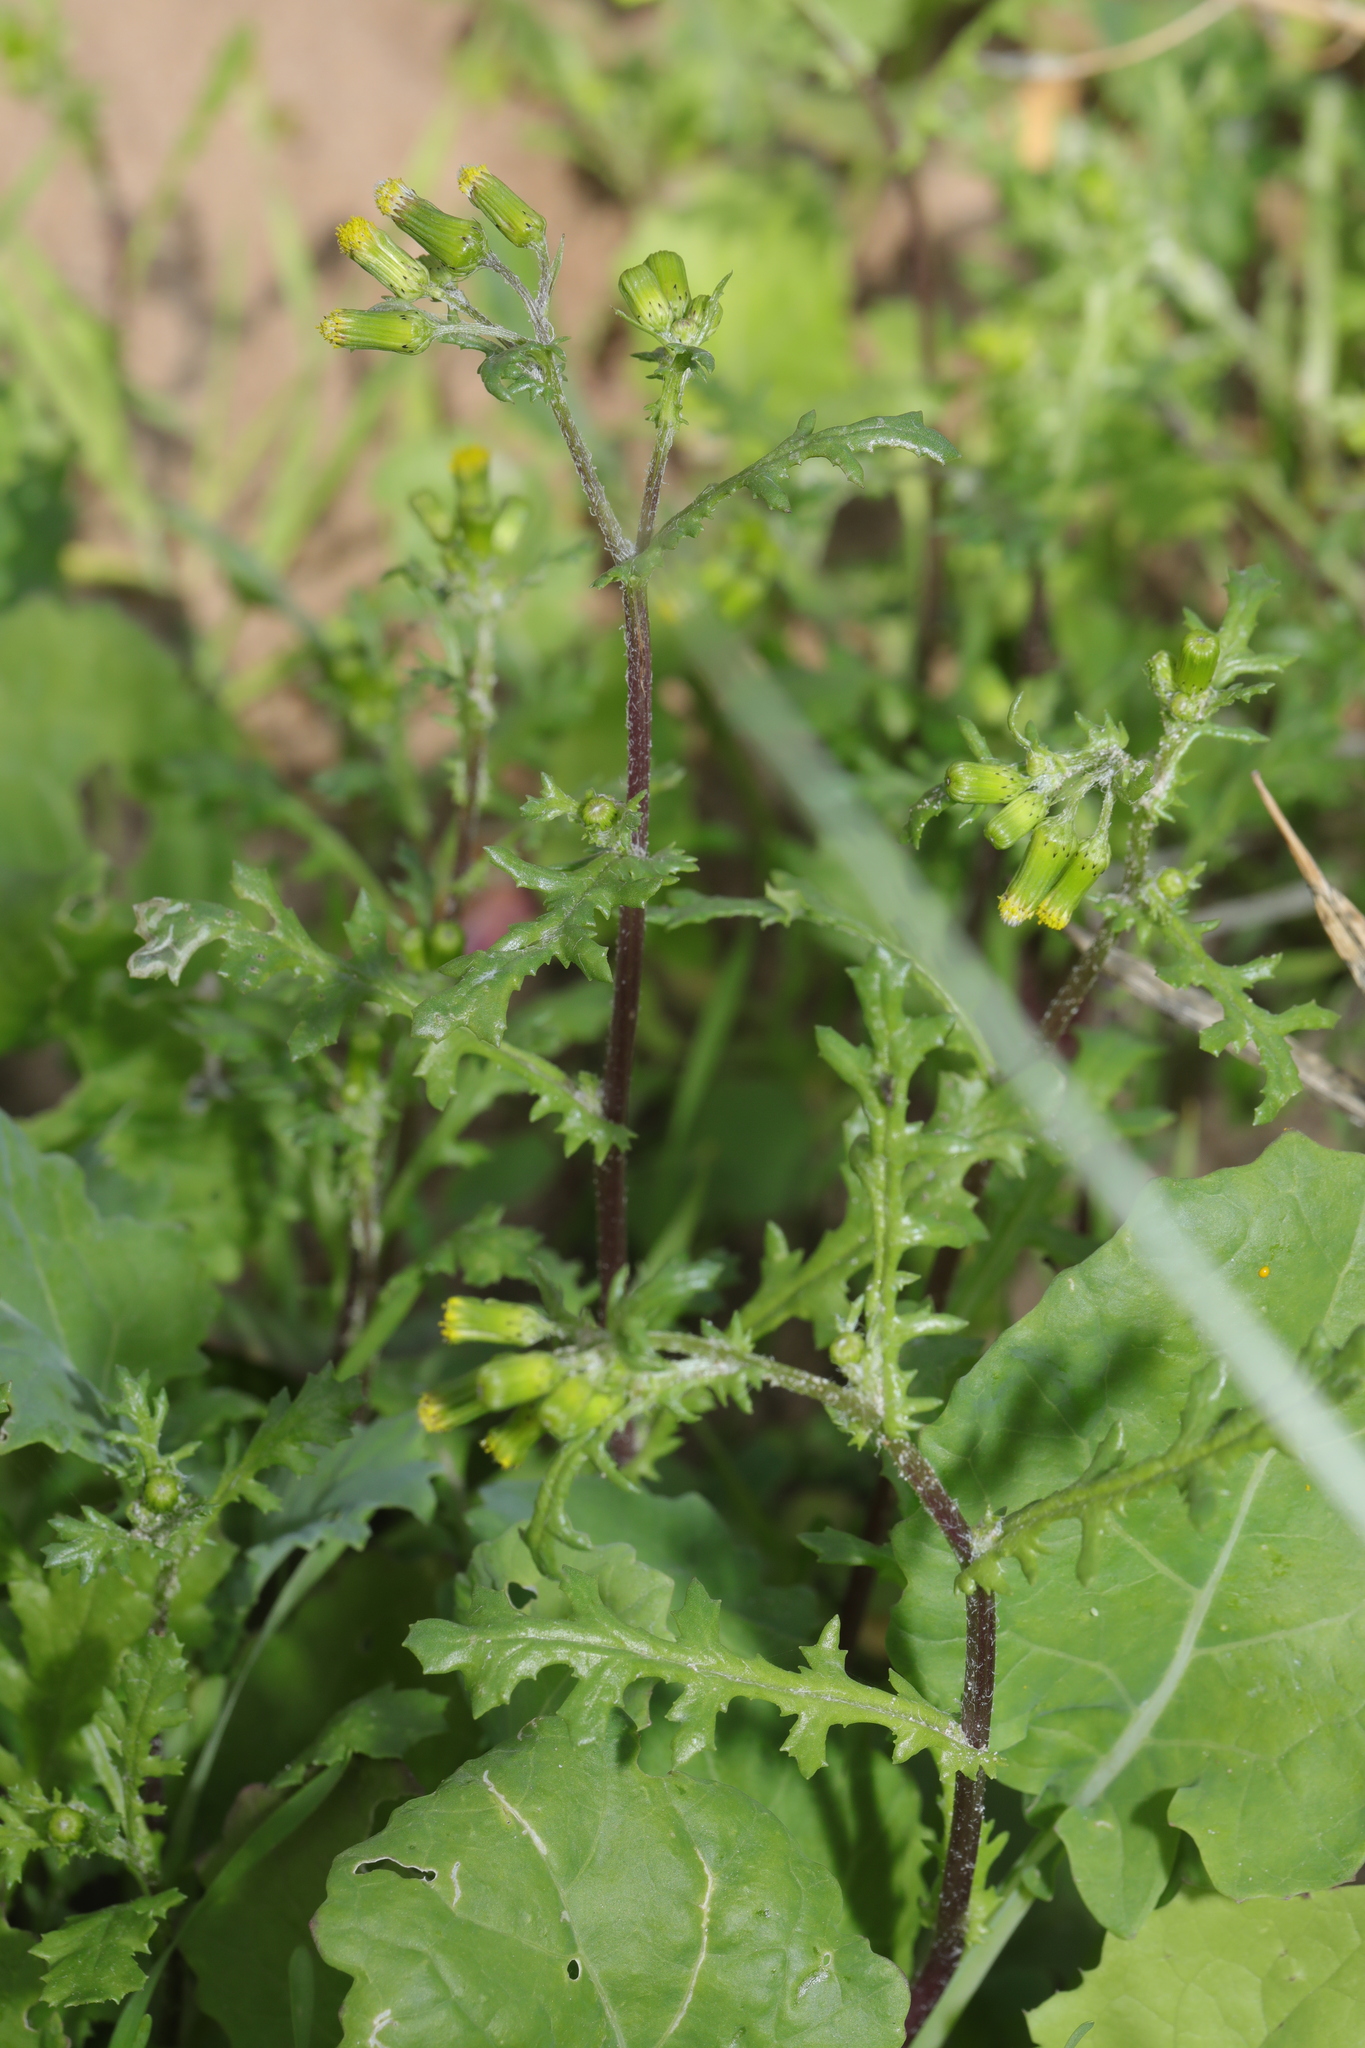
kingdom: Plantae
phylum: Tracheophyta
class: Magnoliopsida
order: Asterales
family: Asteraceae
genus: Senecio
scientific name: Senecio vulgaris
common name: Old-man-in-the-spring
